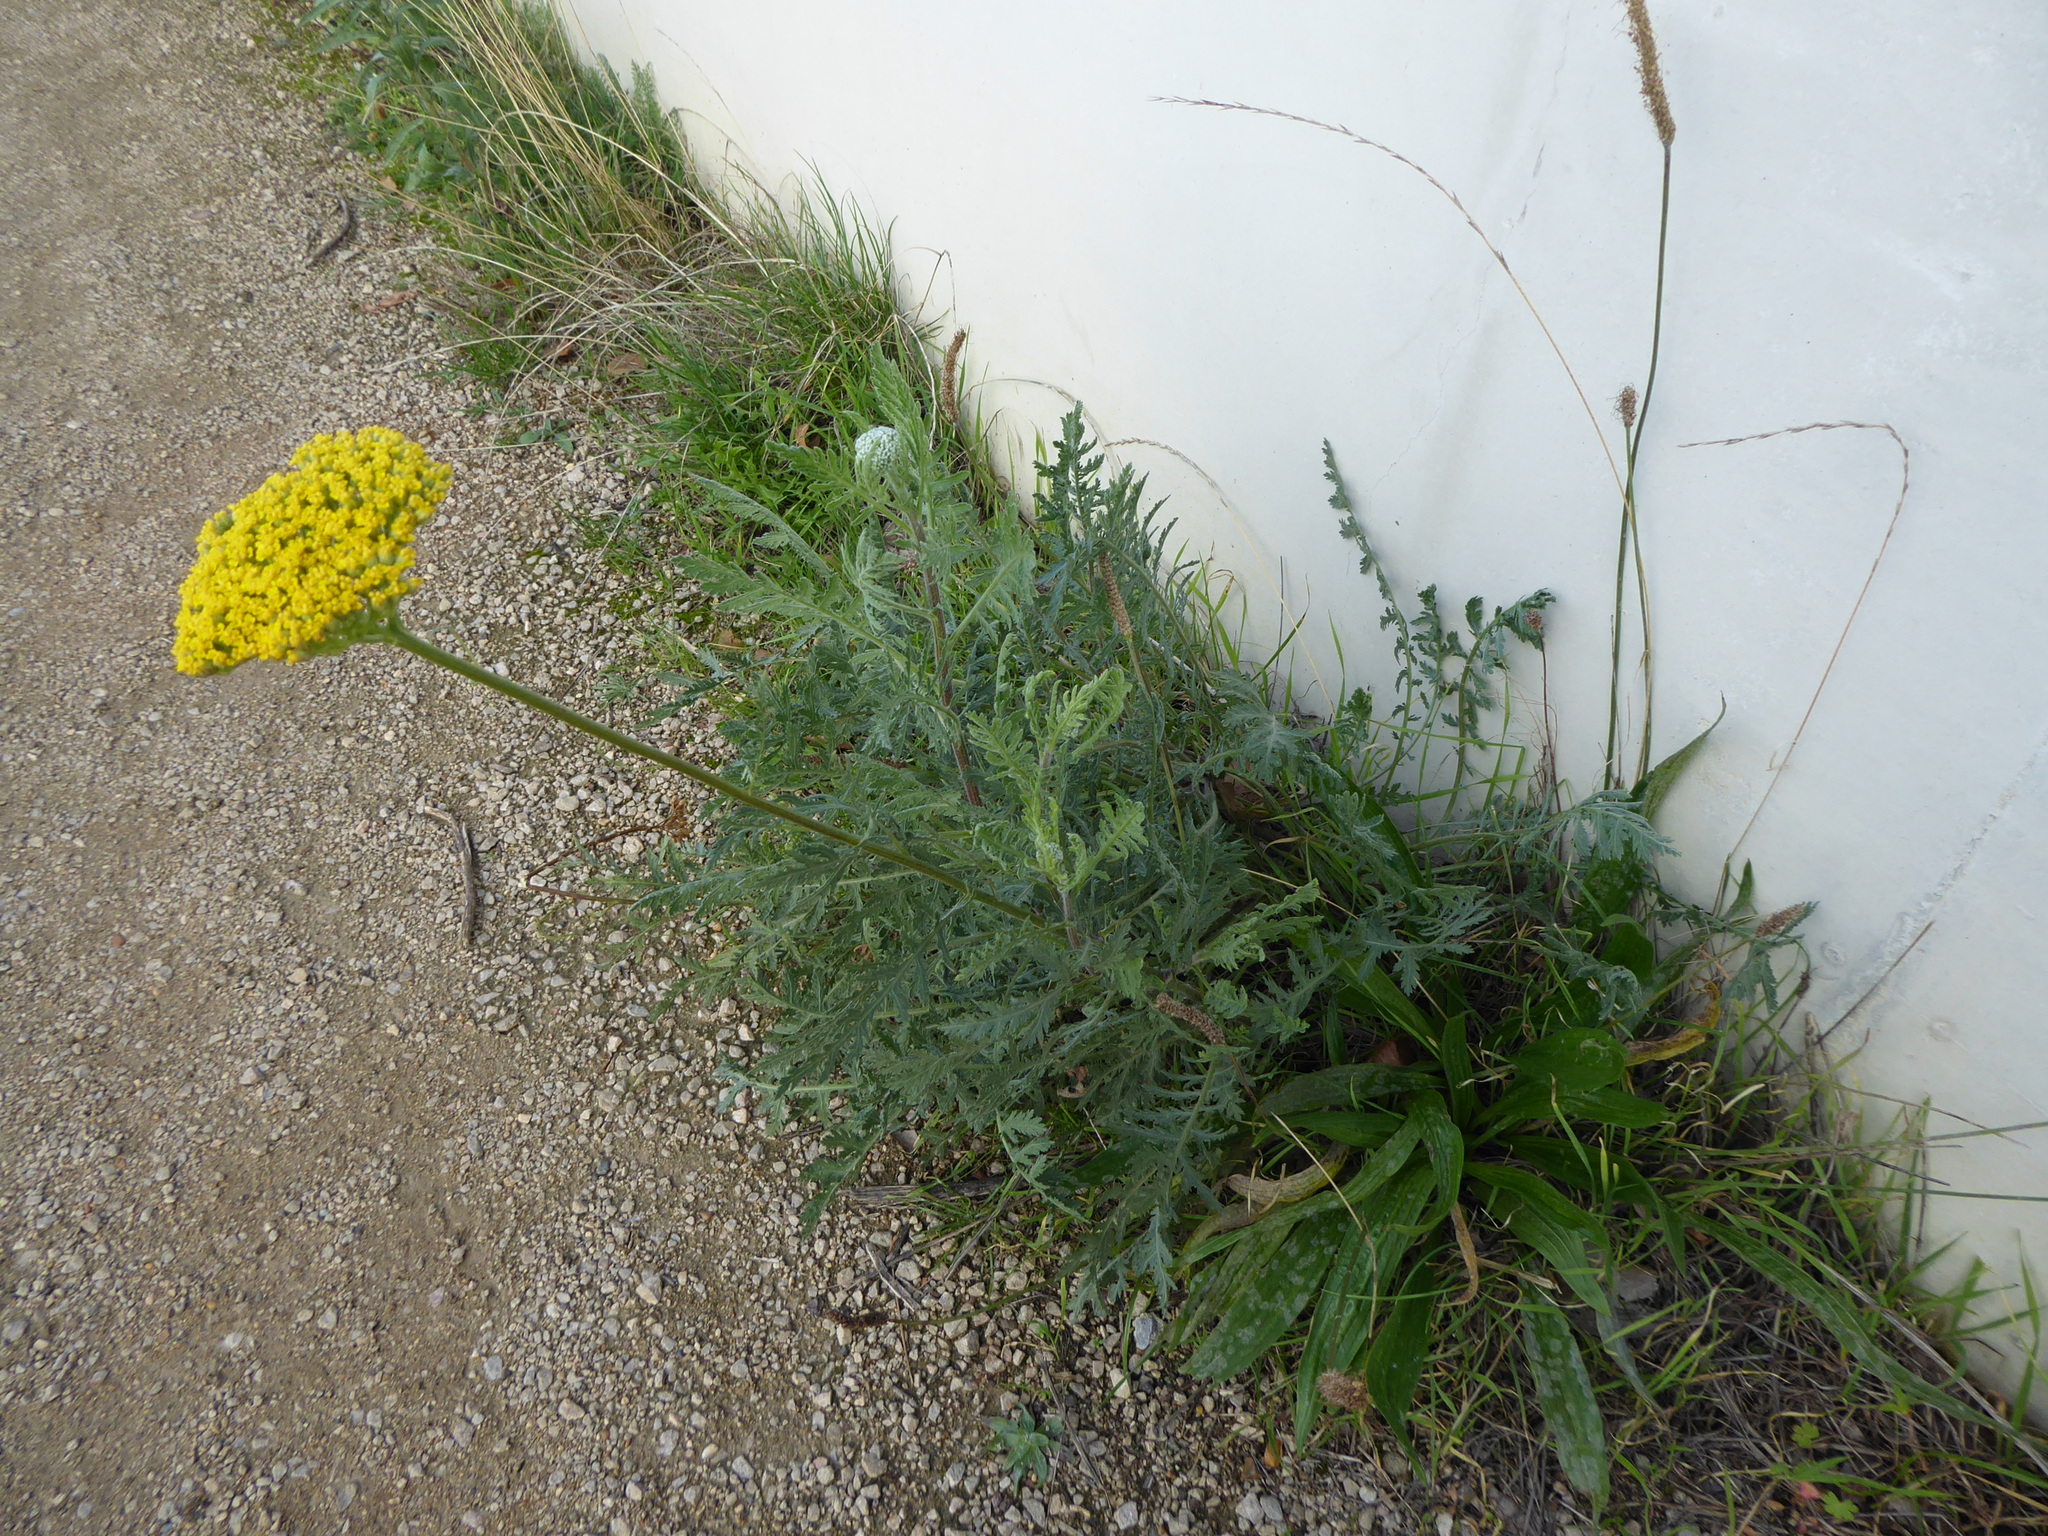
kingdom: Plantae
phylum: Tracheophyta
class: Magnoliopsida
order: Asterales
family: Asteraceae
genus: Achillea
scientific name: Achillea filipendulina
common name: Fernleaf yarrow
